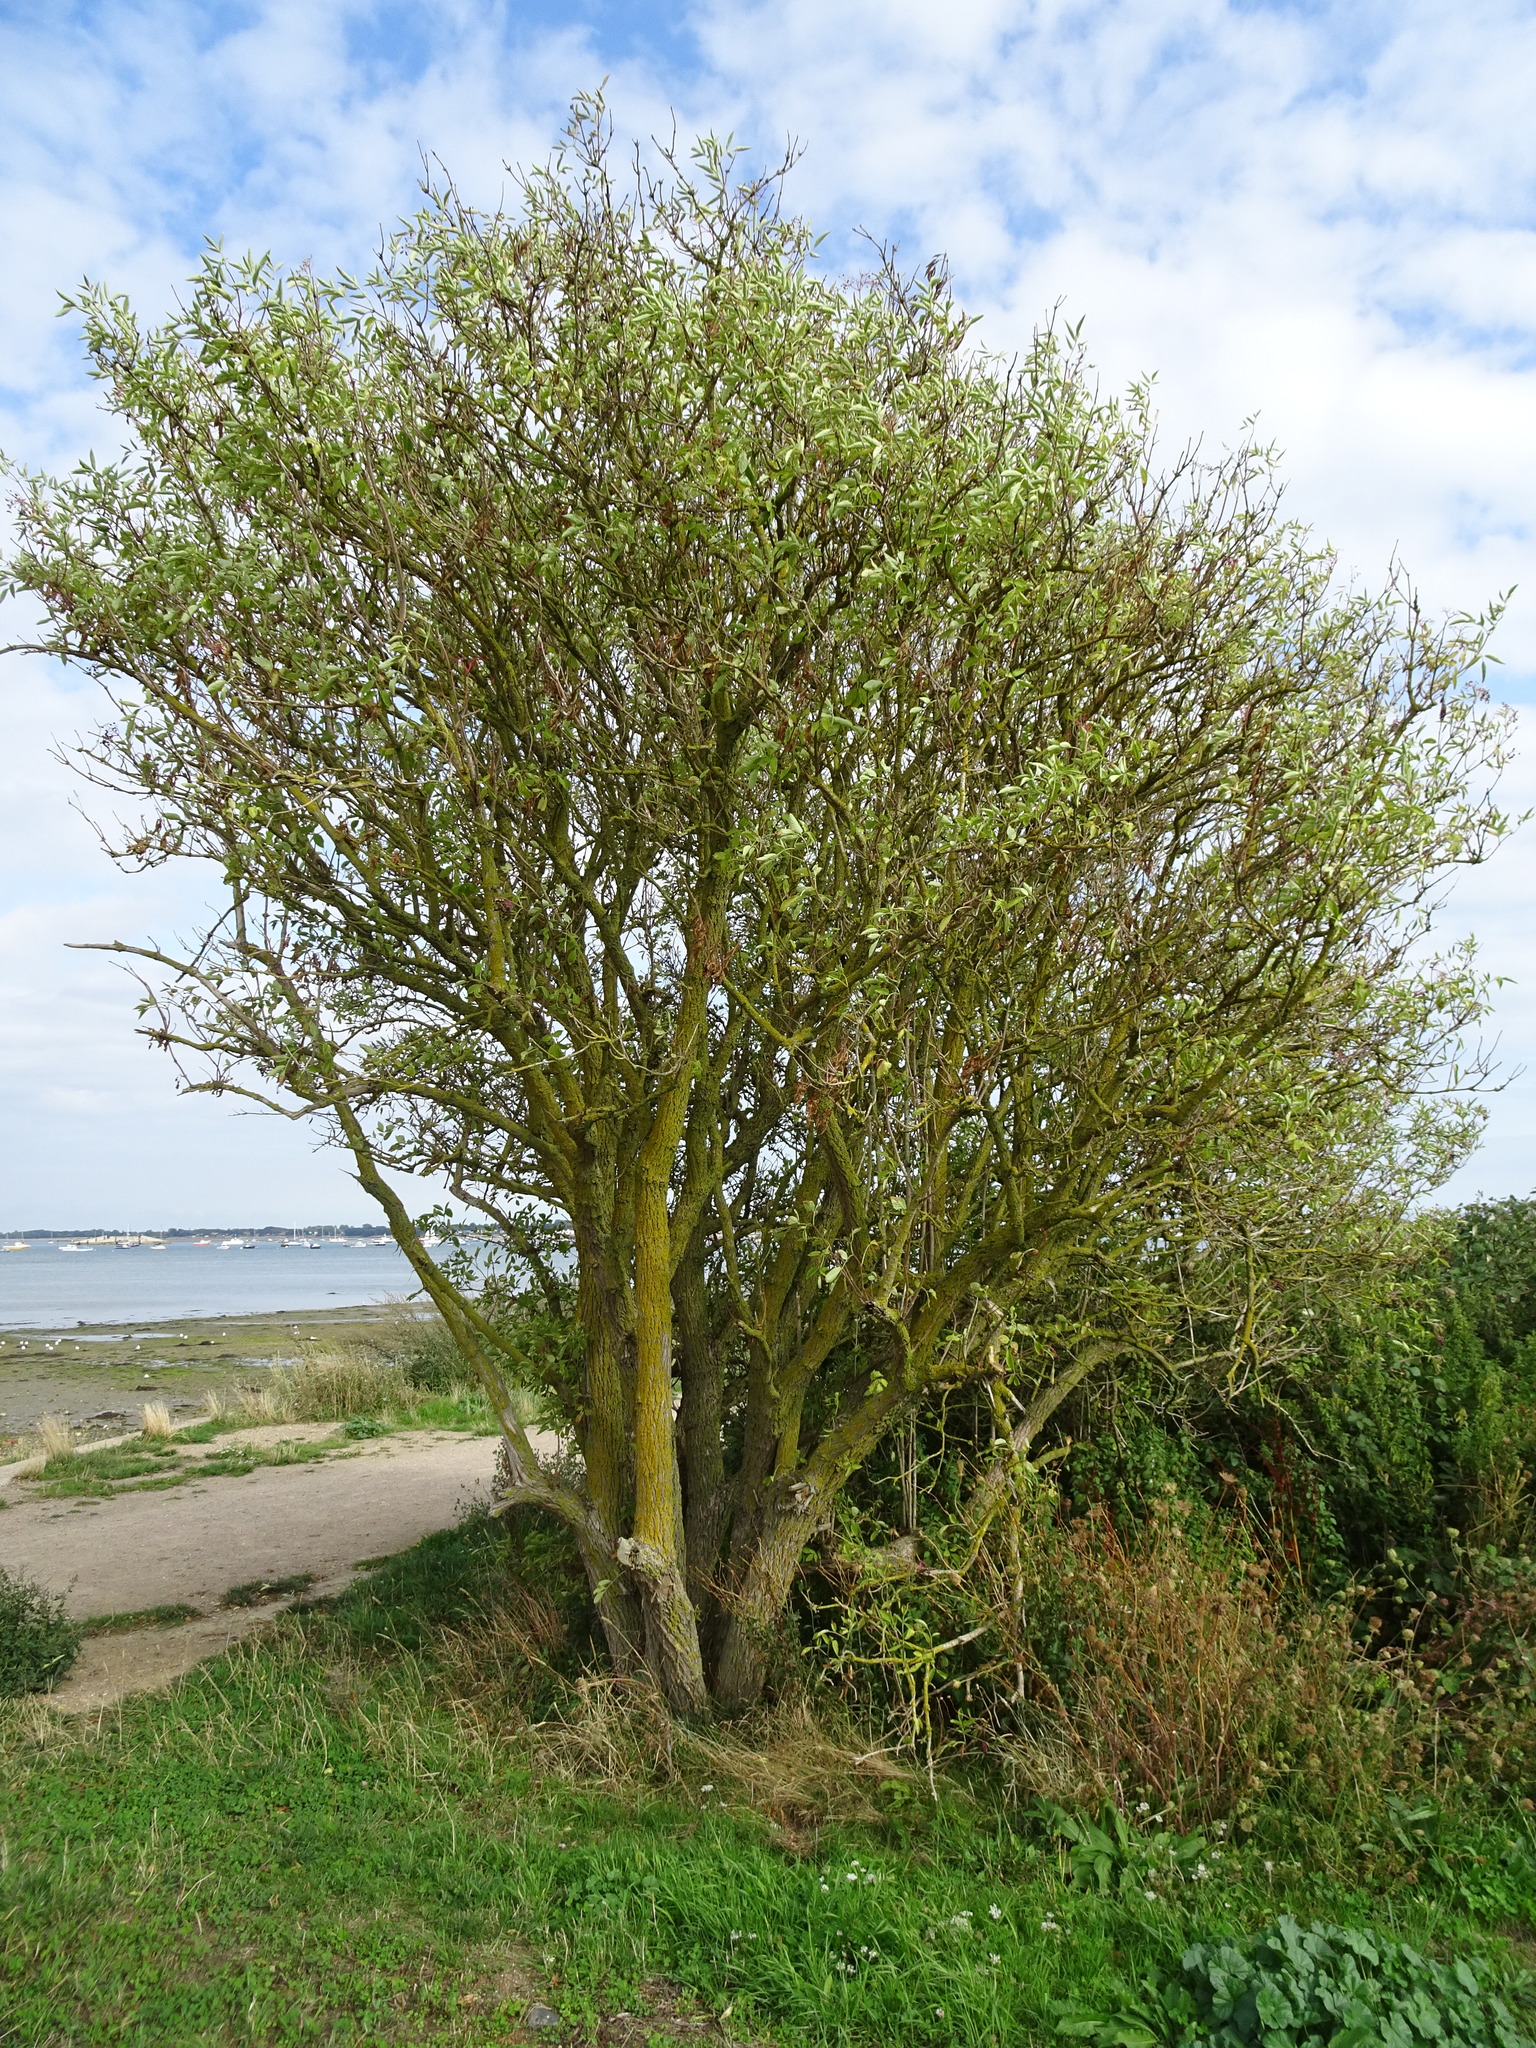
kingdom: Plantae
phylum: Tracheophyta
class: Magnoliopsida
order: Dipsacales
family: Viburnaceae
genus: Sambucus
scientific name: Sambucus nigra
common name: Elder
